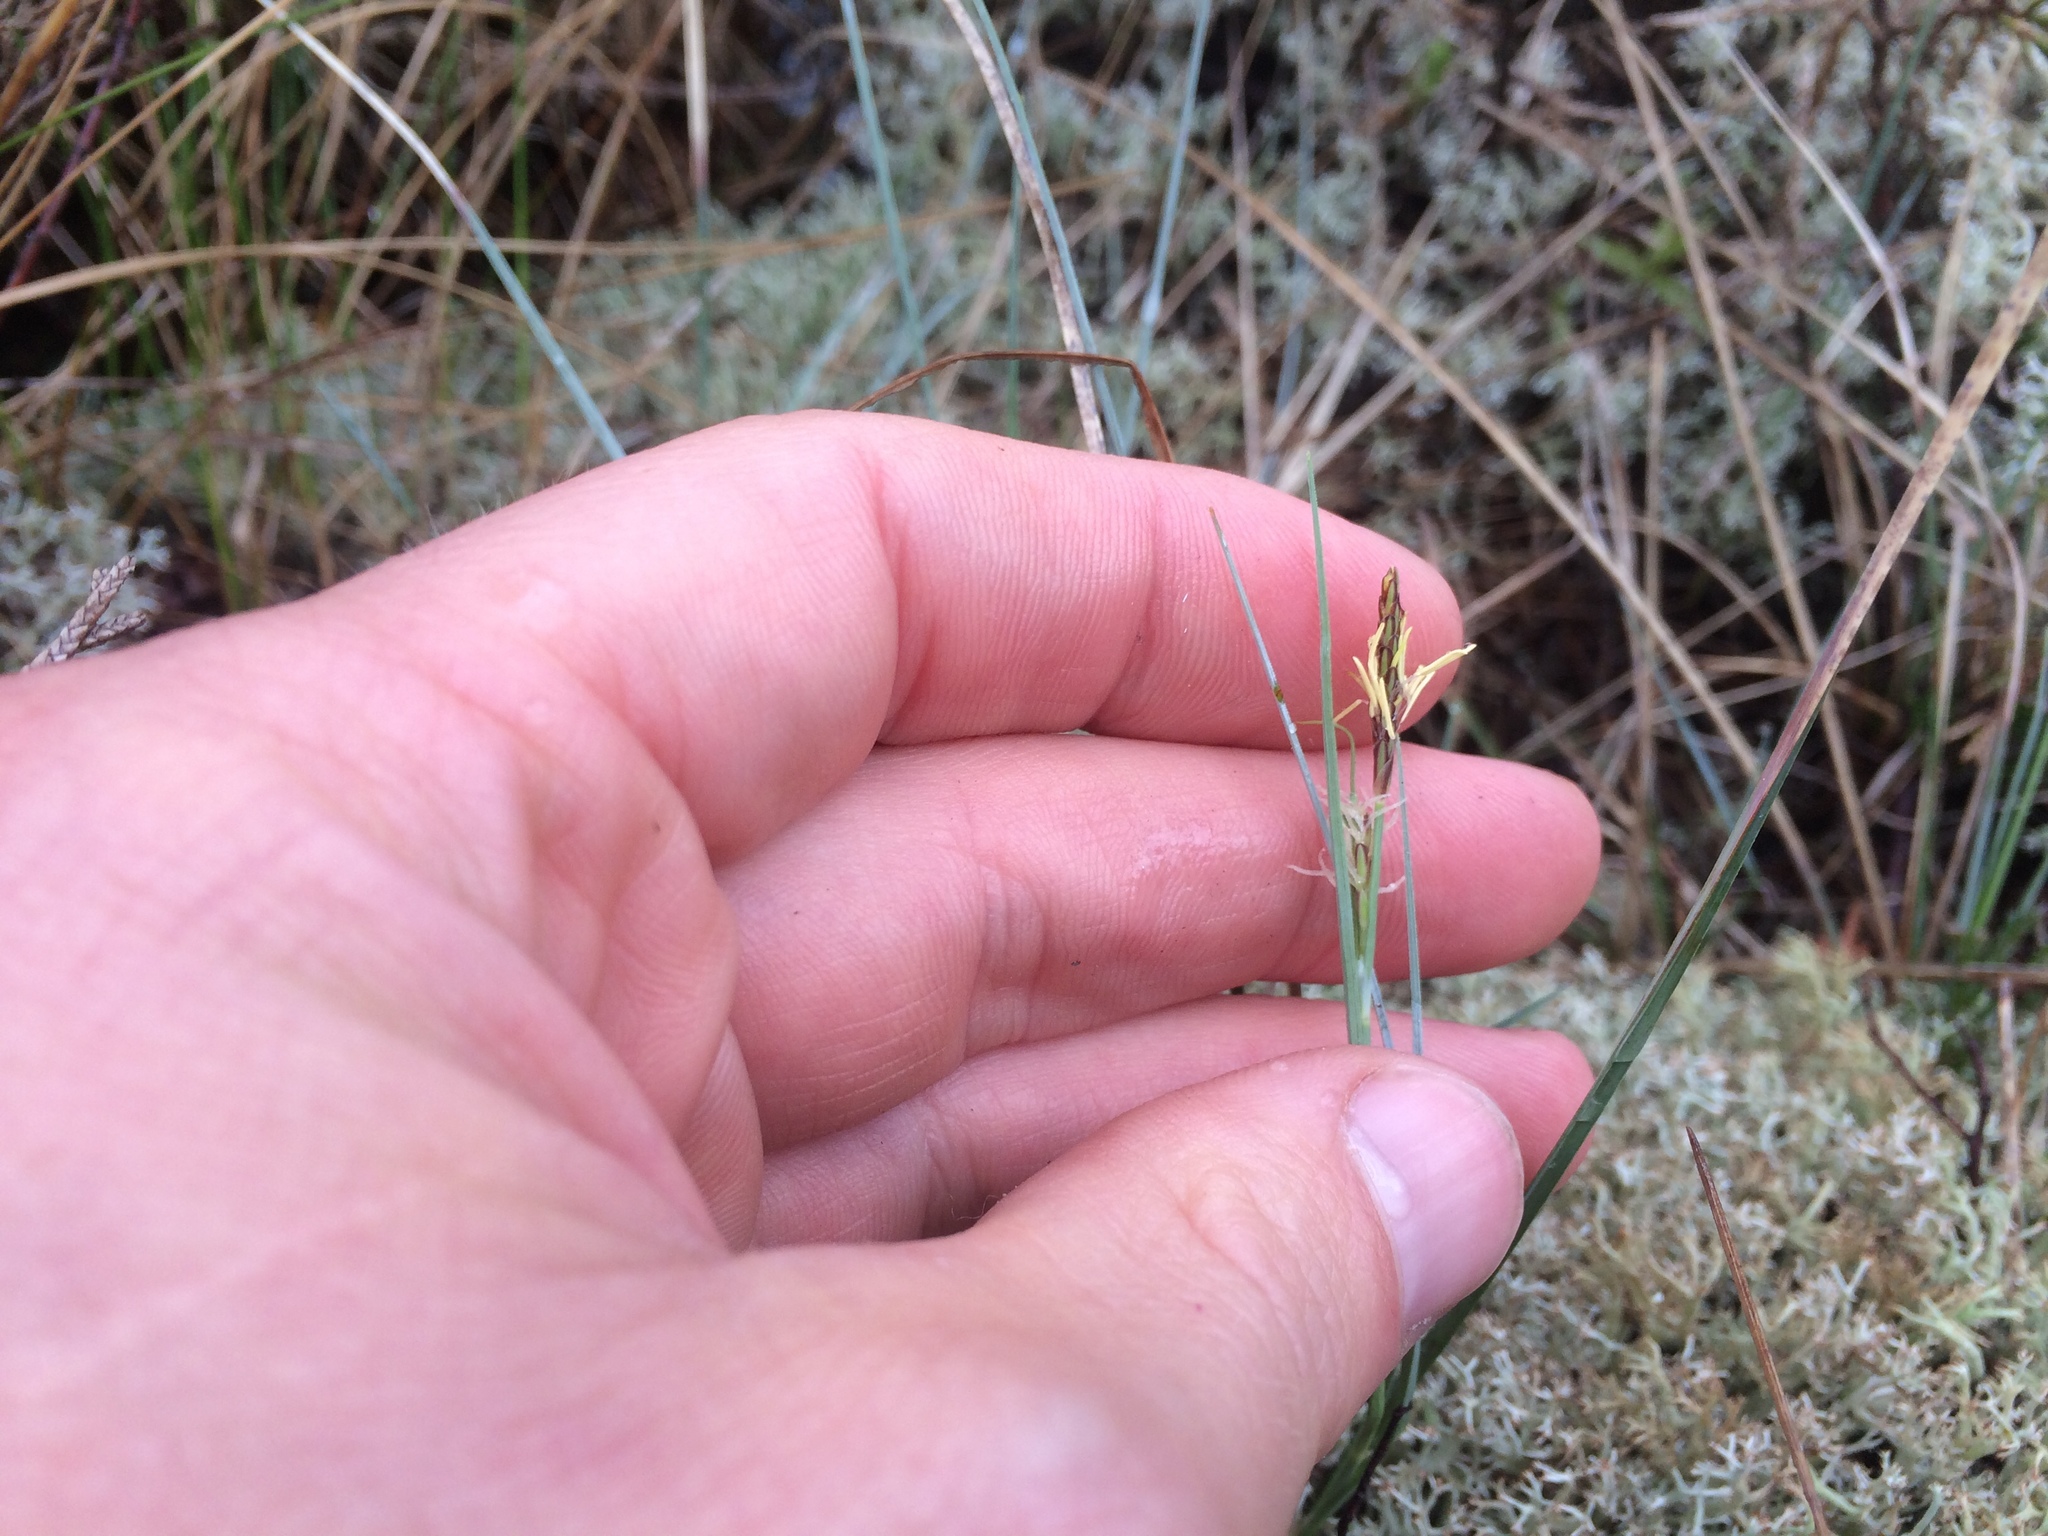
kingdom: Plantae
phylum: Tracheophyta
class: Liliopsida
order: Poales
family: Cyperaceae
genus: Carex
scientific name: Carex livida
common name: Livid sedge
